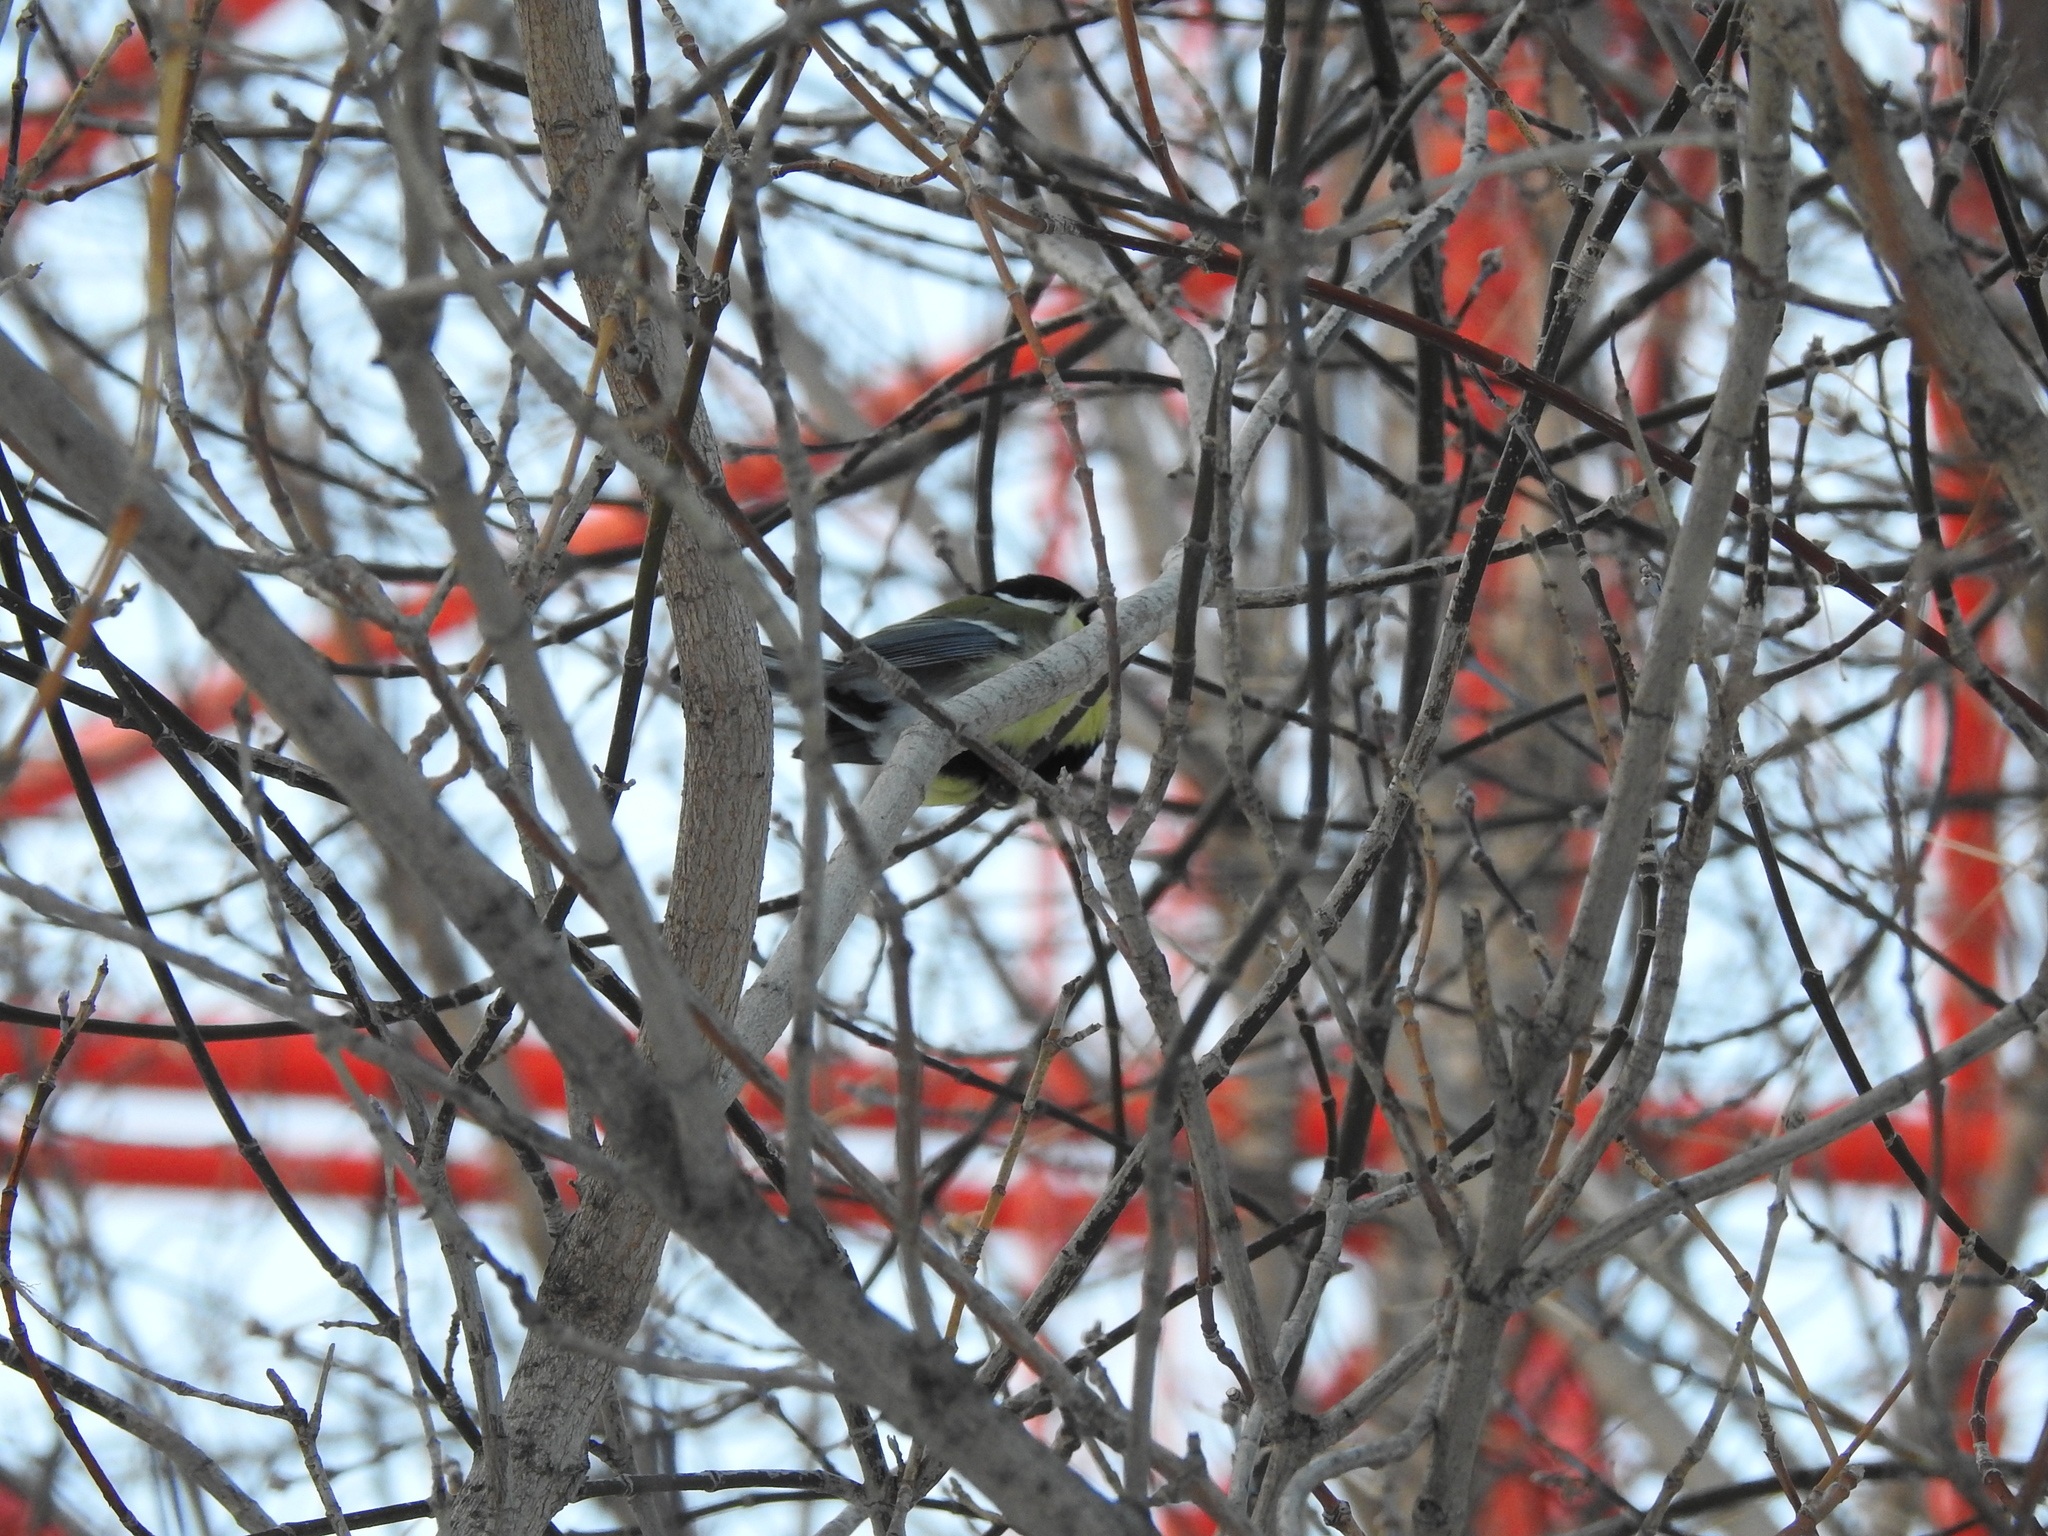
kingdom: Animalia
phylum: Chordata
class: Aves
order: Passeriformes
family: Paridae
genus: Parus
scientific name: Parus major
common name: Great tit
